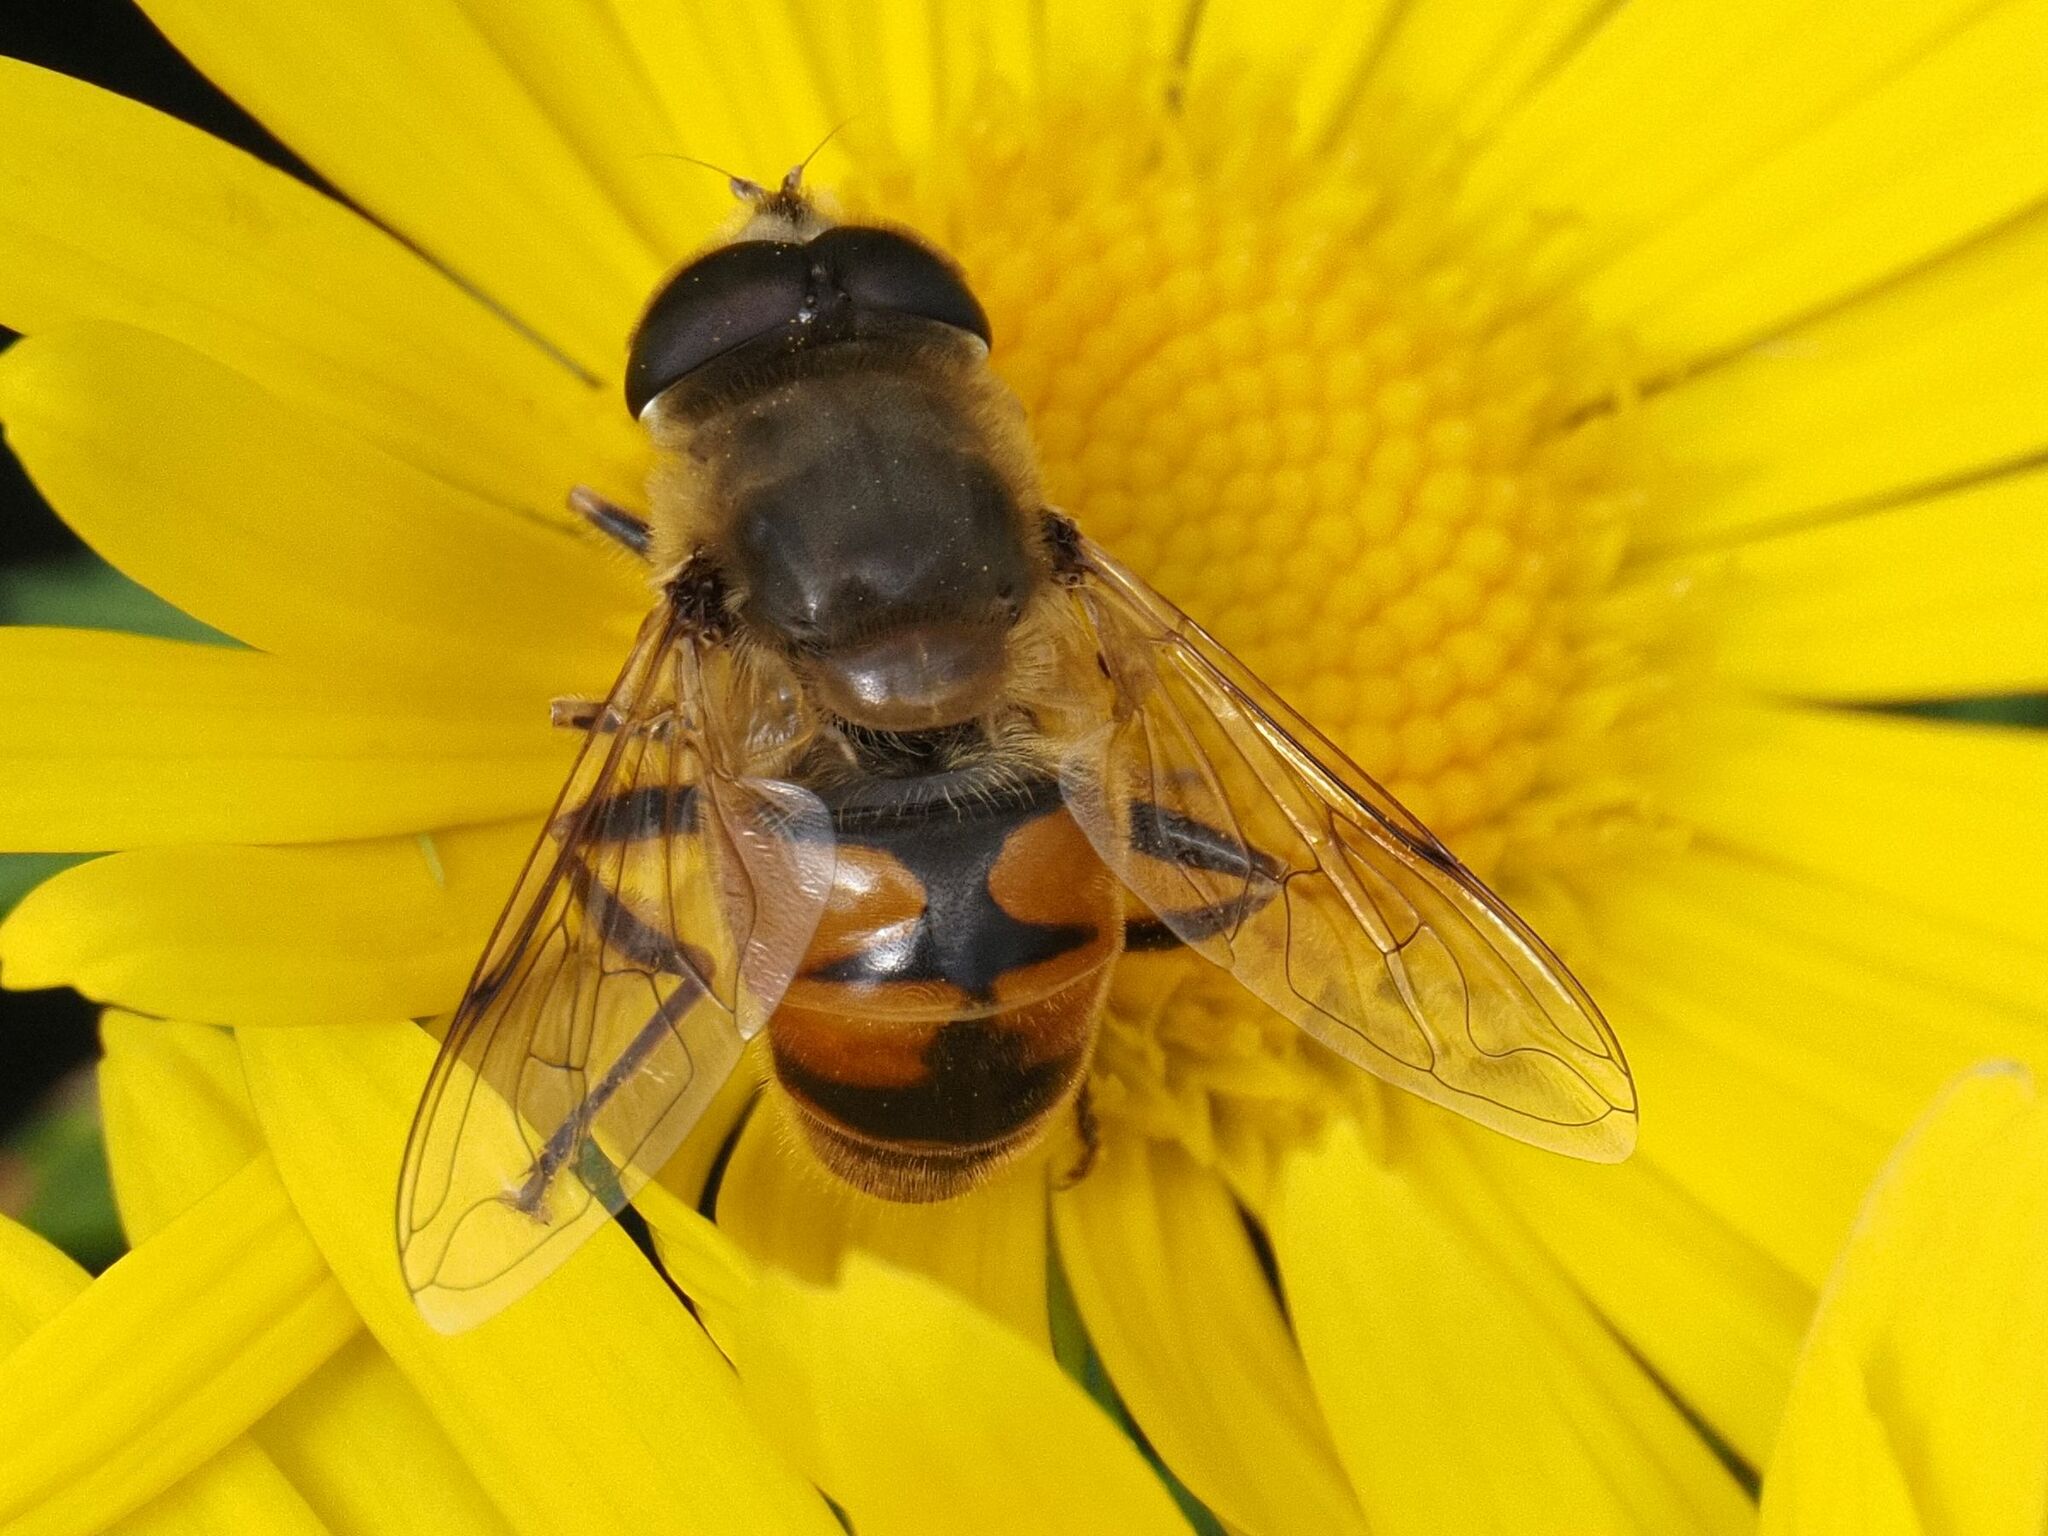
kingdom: Animalia
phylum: Arthropoda
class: Insecta
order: Diptera
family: Syrphidae
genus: Eristalis
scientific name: Eristalis tenax
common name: Drone fly
